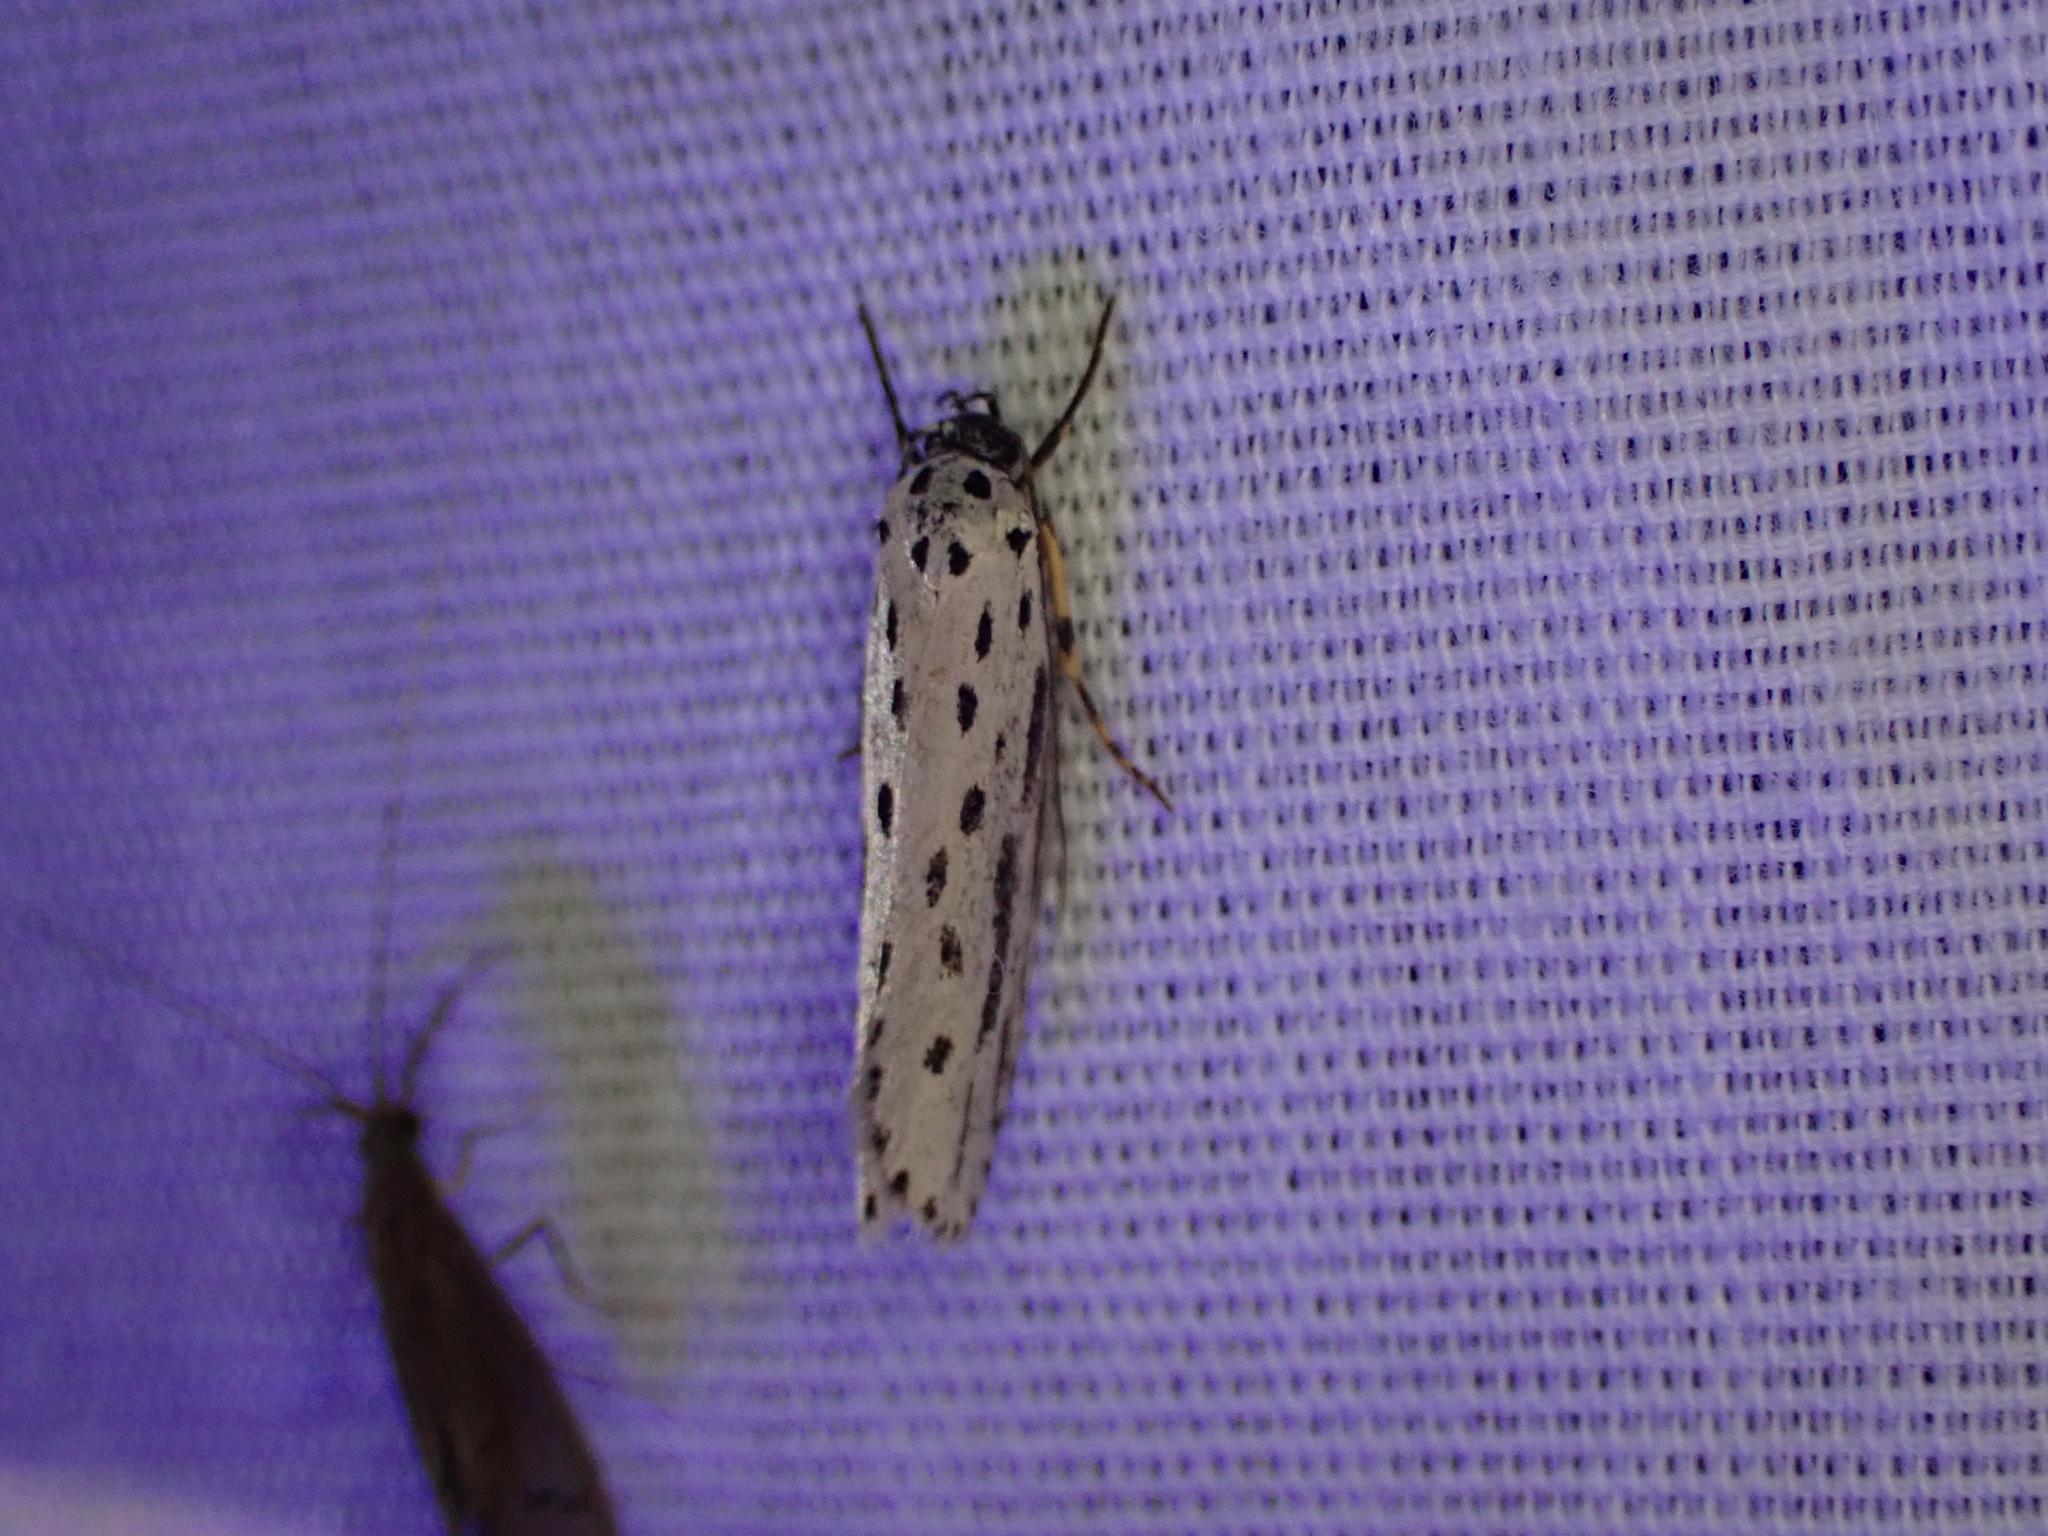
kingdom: Animalia
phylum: Arthropoda
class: Insecta
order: Lepidoptera
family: Ethmiidae
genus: Ethmia
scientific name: Ethmia zelleriella
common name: Zeller's ethmia
